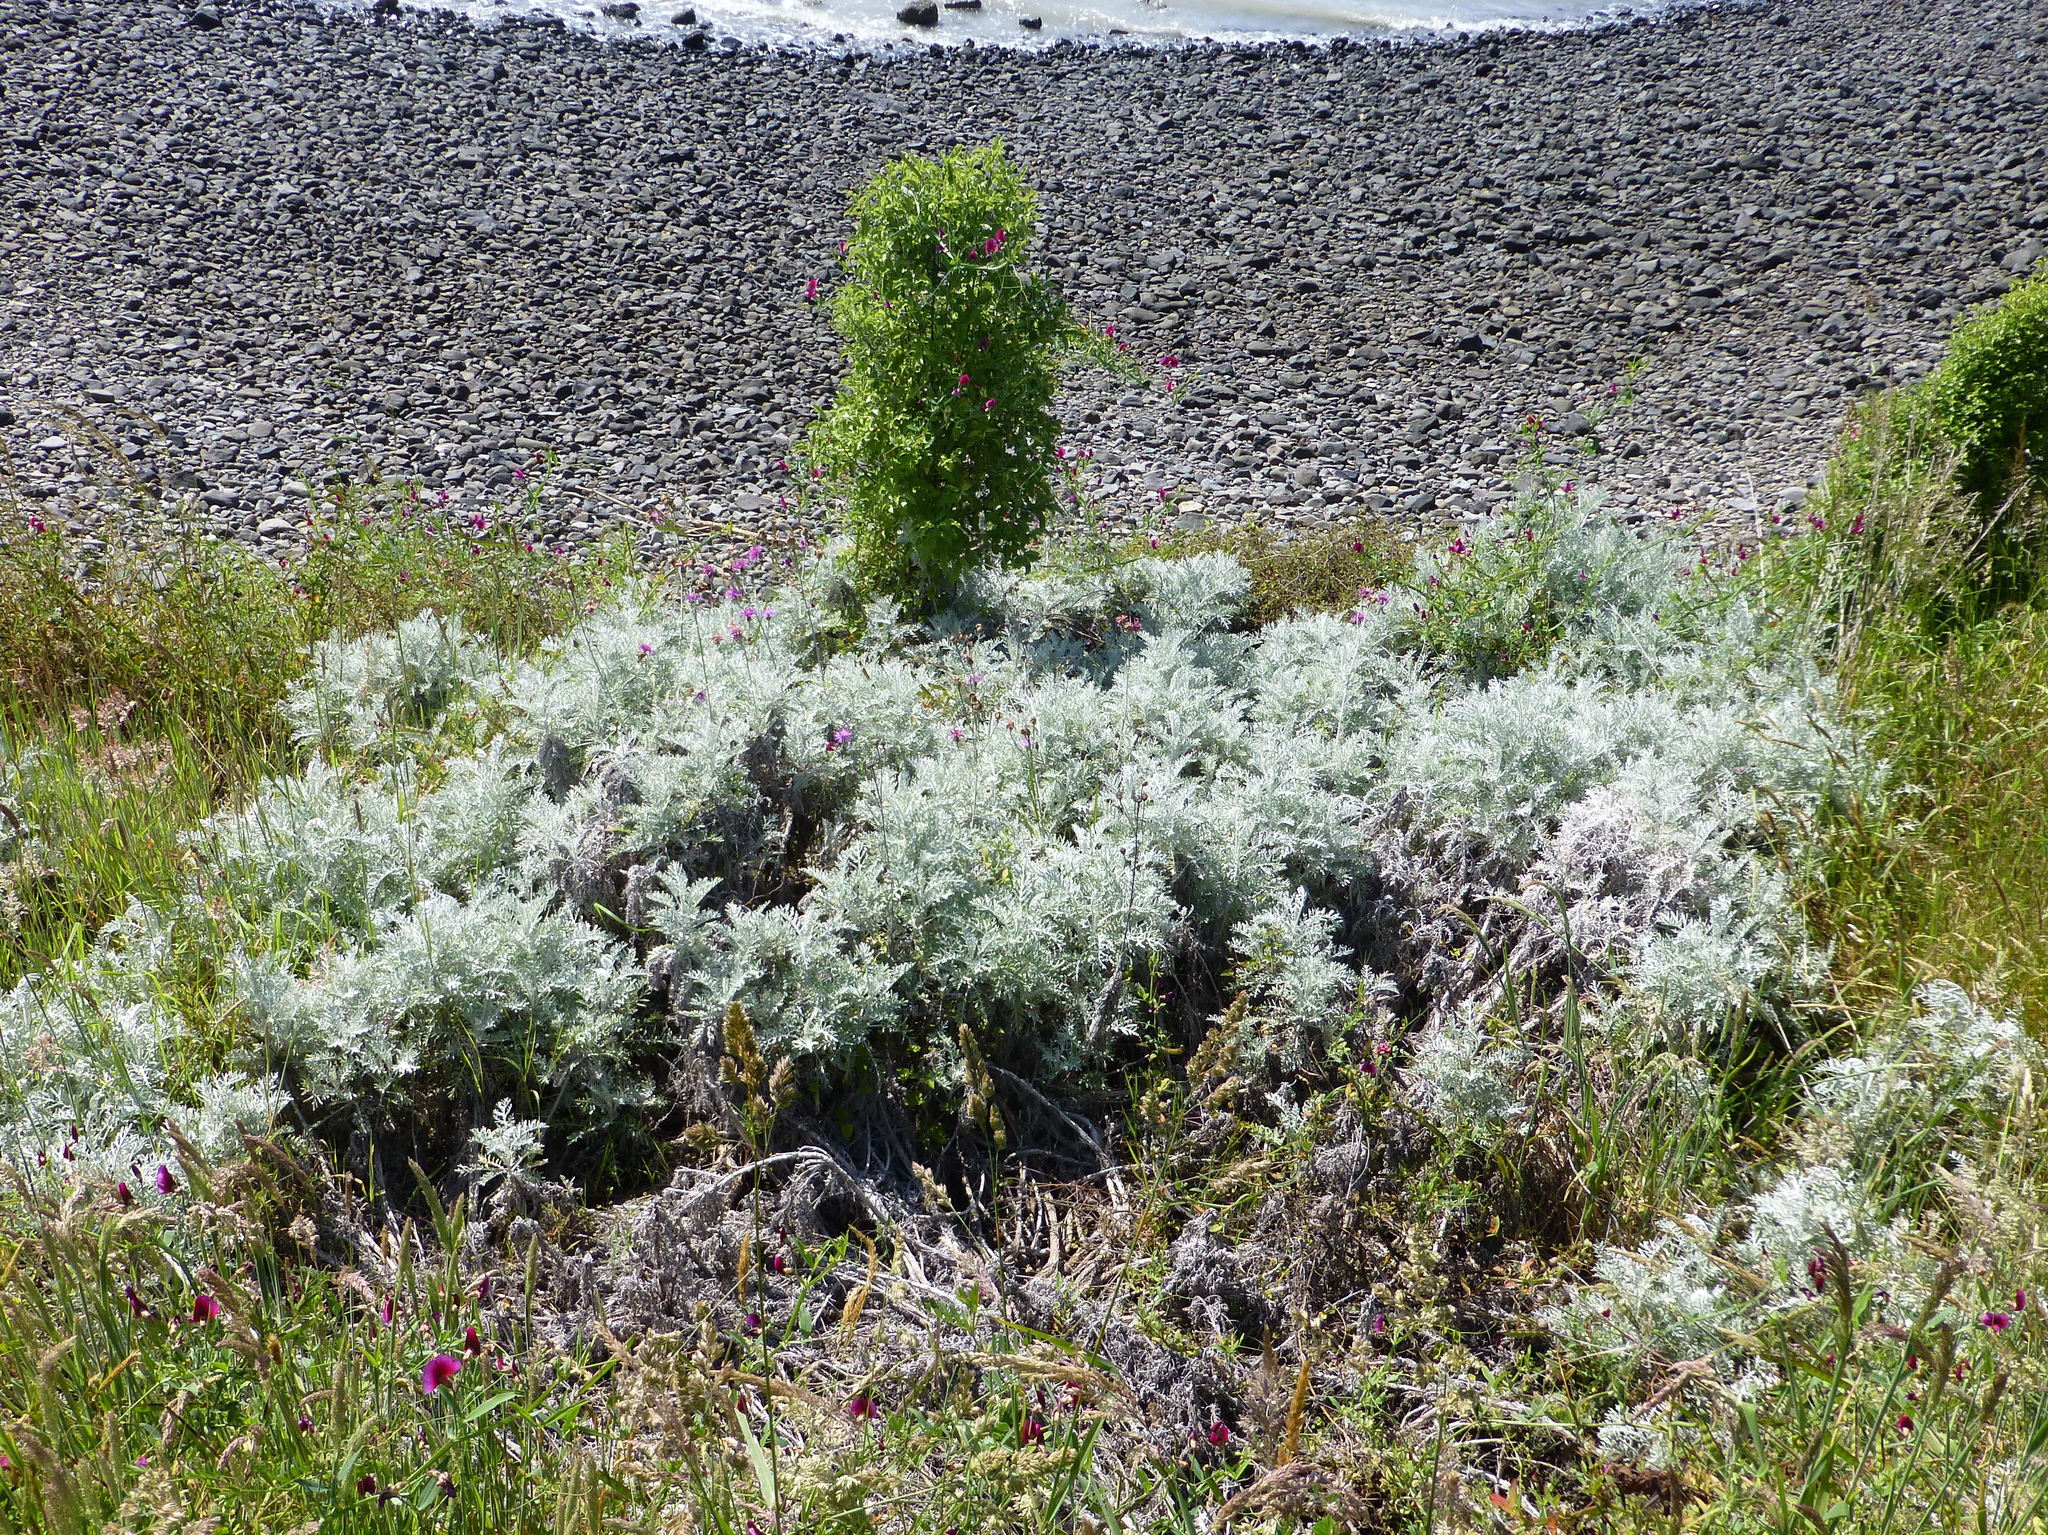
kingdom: Plantae
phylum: Tracheophyta
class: Magnoliopsida
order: Asterales
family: Asteraceae
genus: Centaurea
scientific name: Centaurea cineraria
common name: Dusty miller
